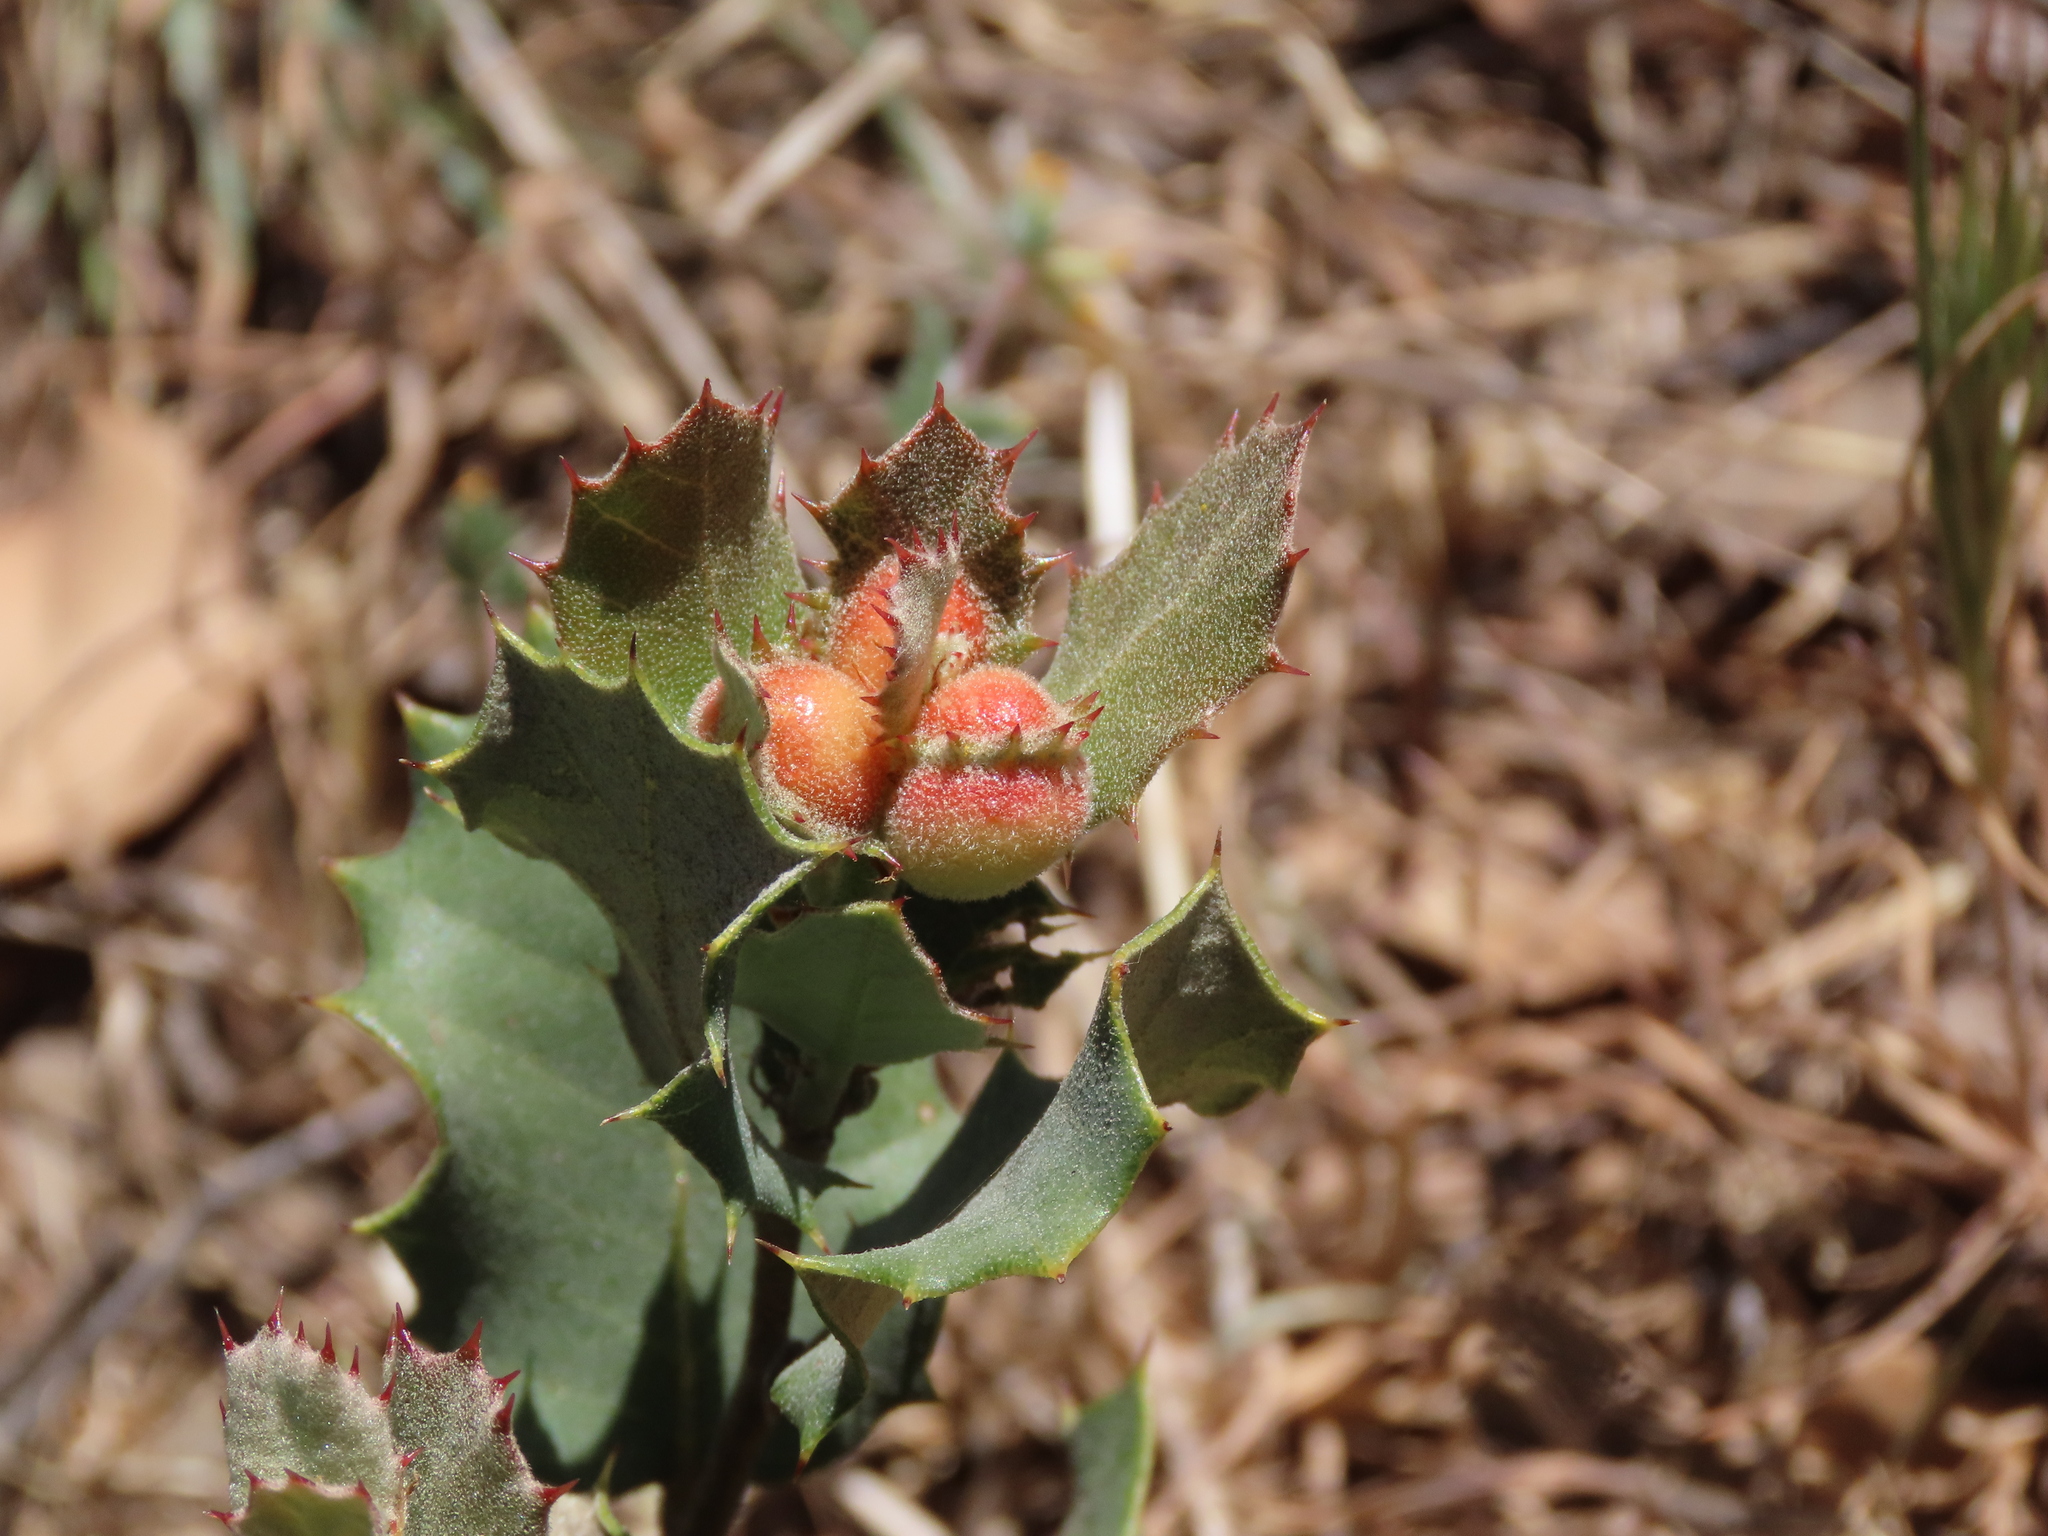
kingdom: Animalia
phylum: Arthropoda
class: Insecta
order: Hymenoptera
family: Cynipidae
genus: Plagiotrochus
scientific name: Plagiotrochus quercusilicis
